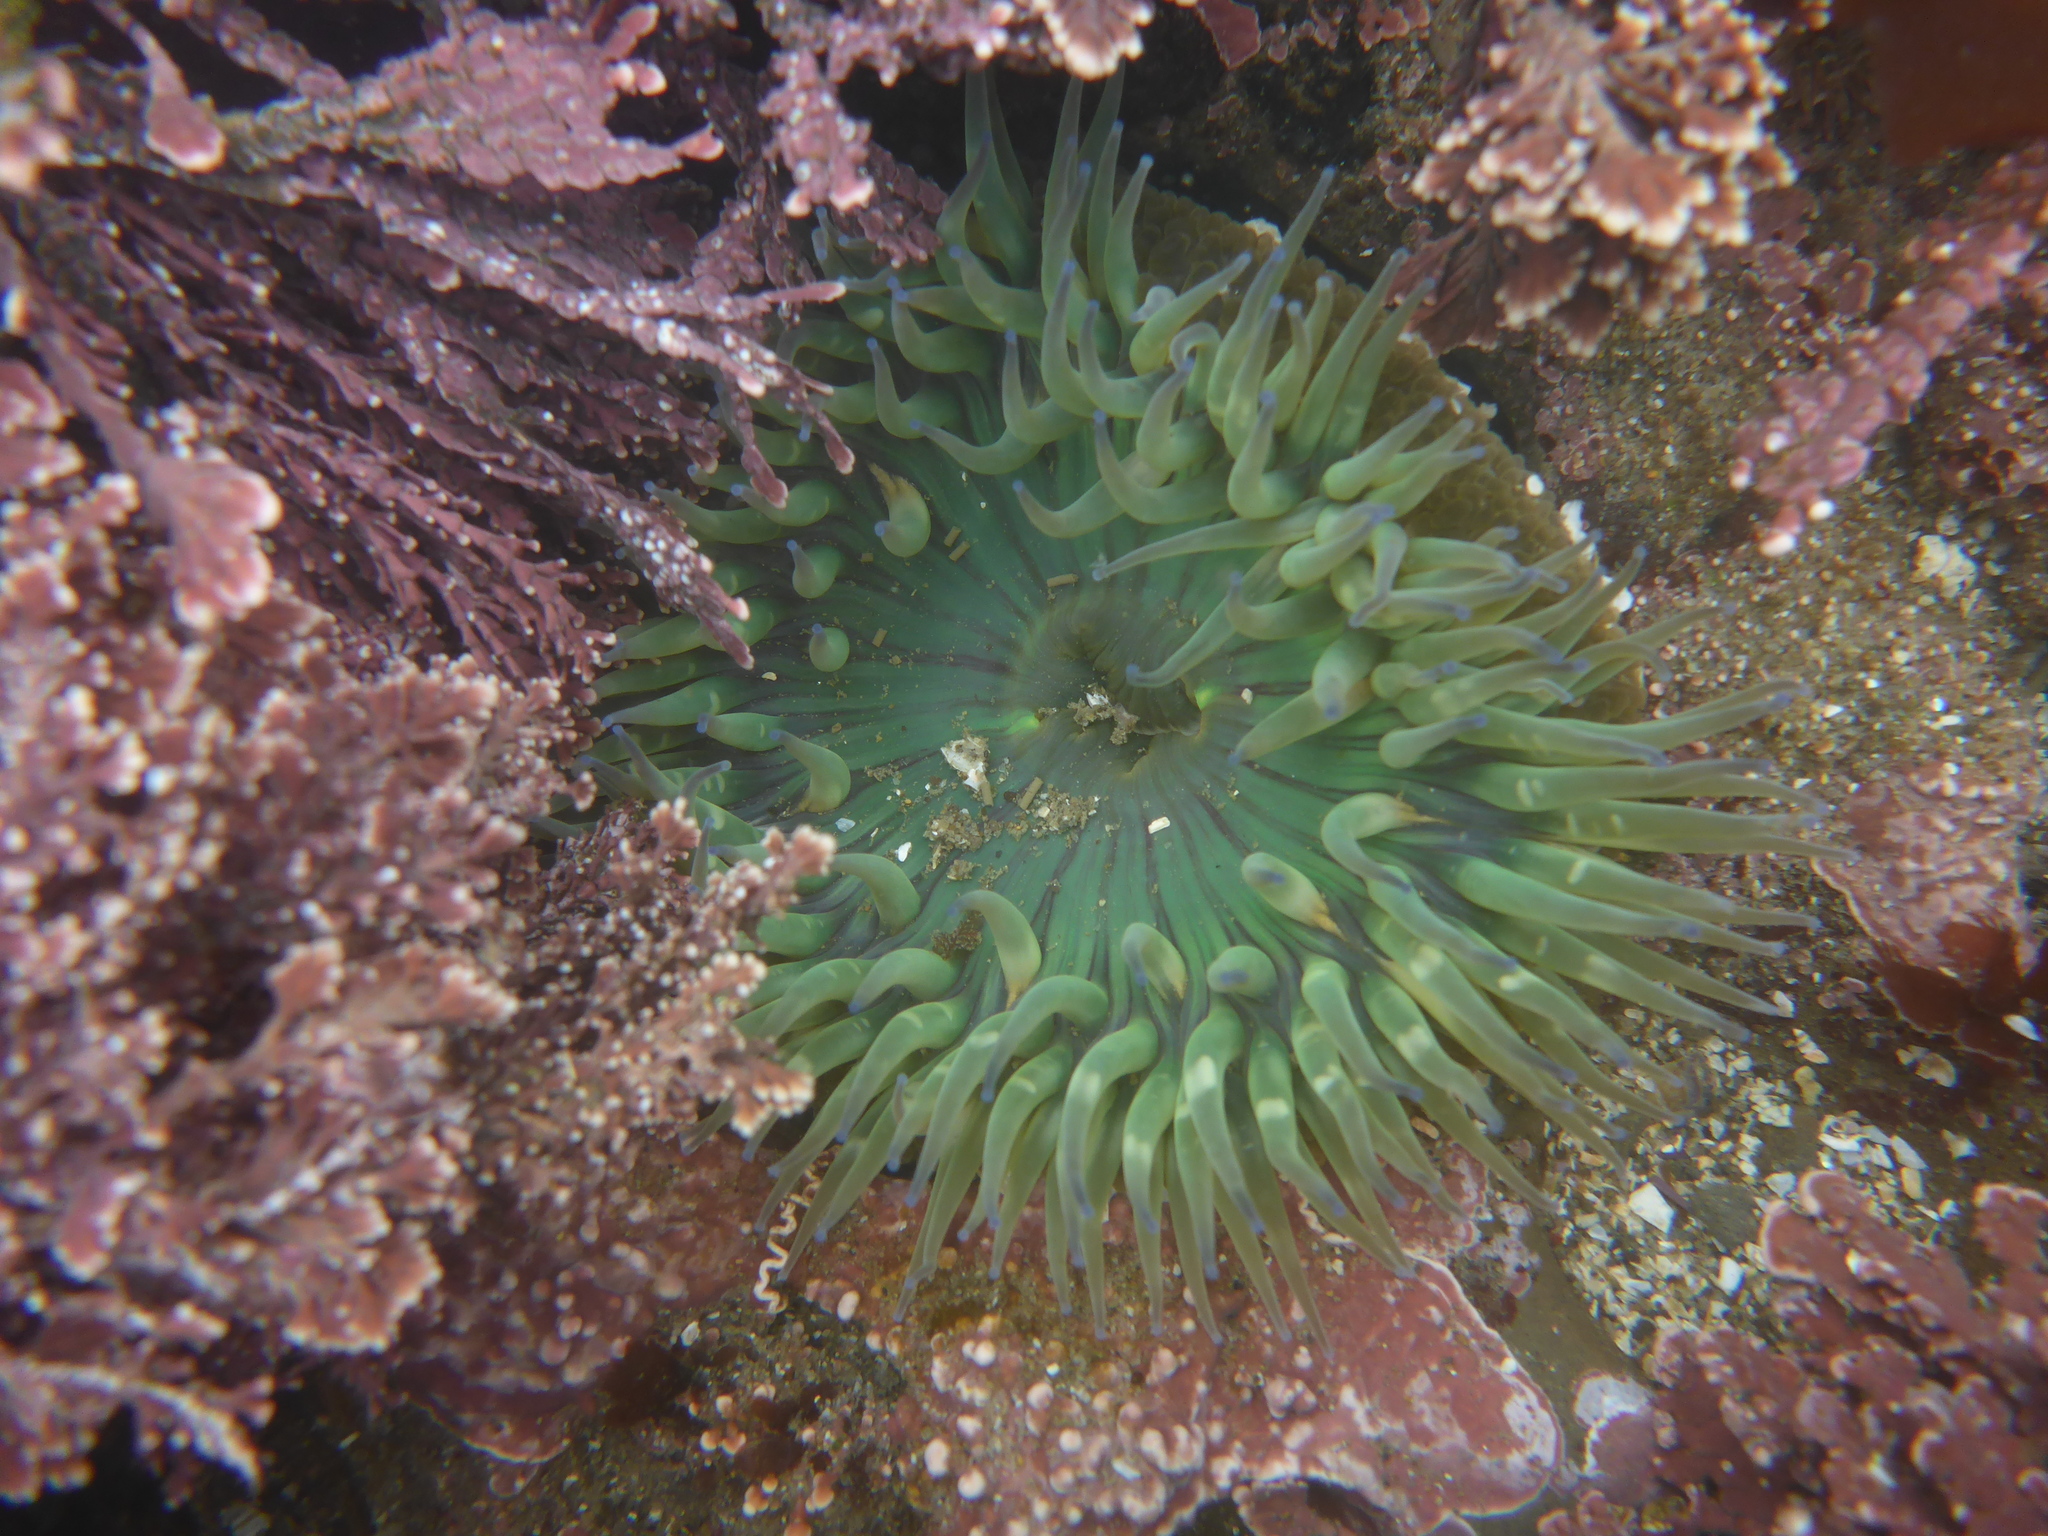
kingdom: Animalia
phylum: Cnidaria
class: Anthozoa
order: Actiniaria
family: Actiniidae
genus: Anthopleura
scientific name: Anthopleura sola
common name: Sun anemone
